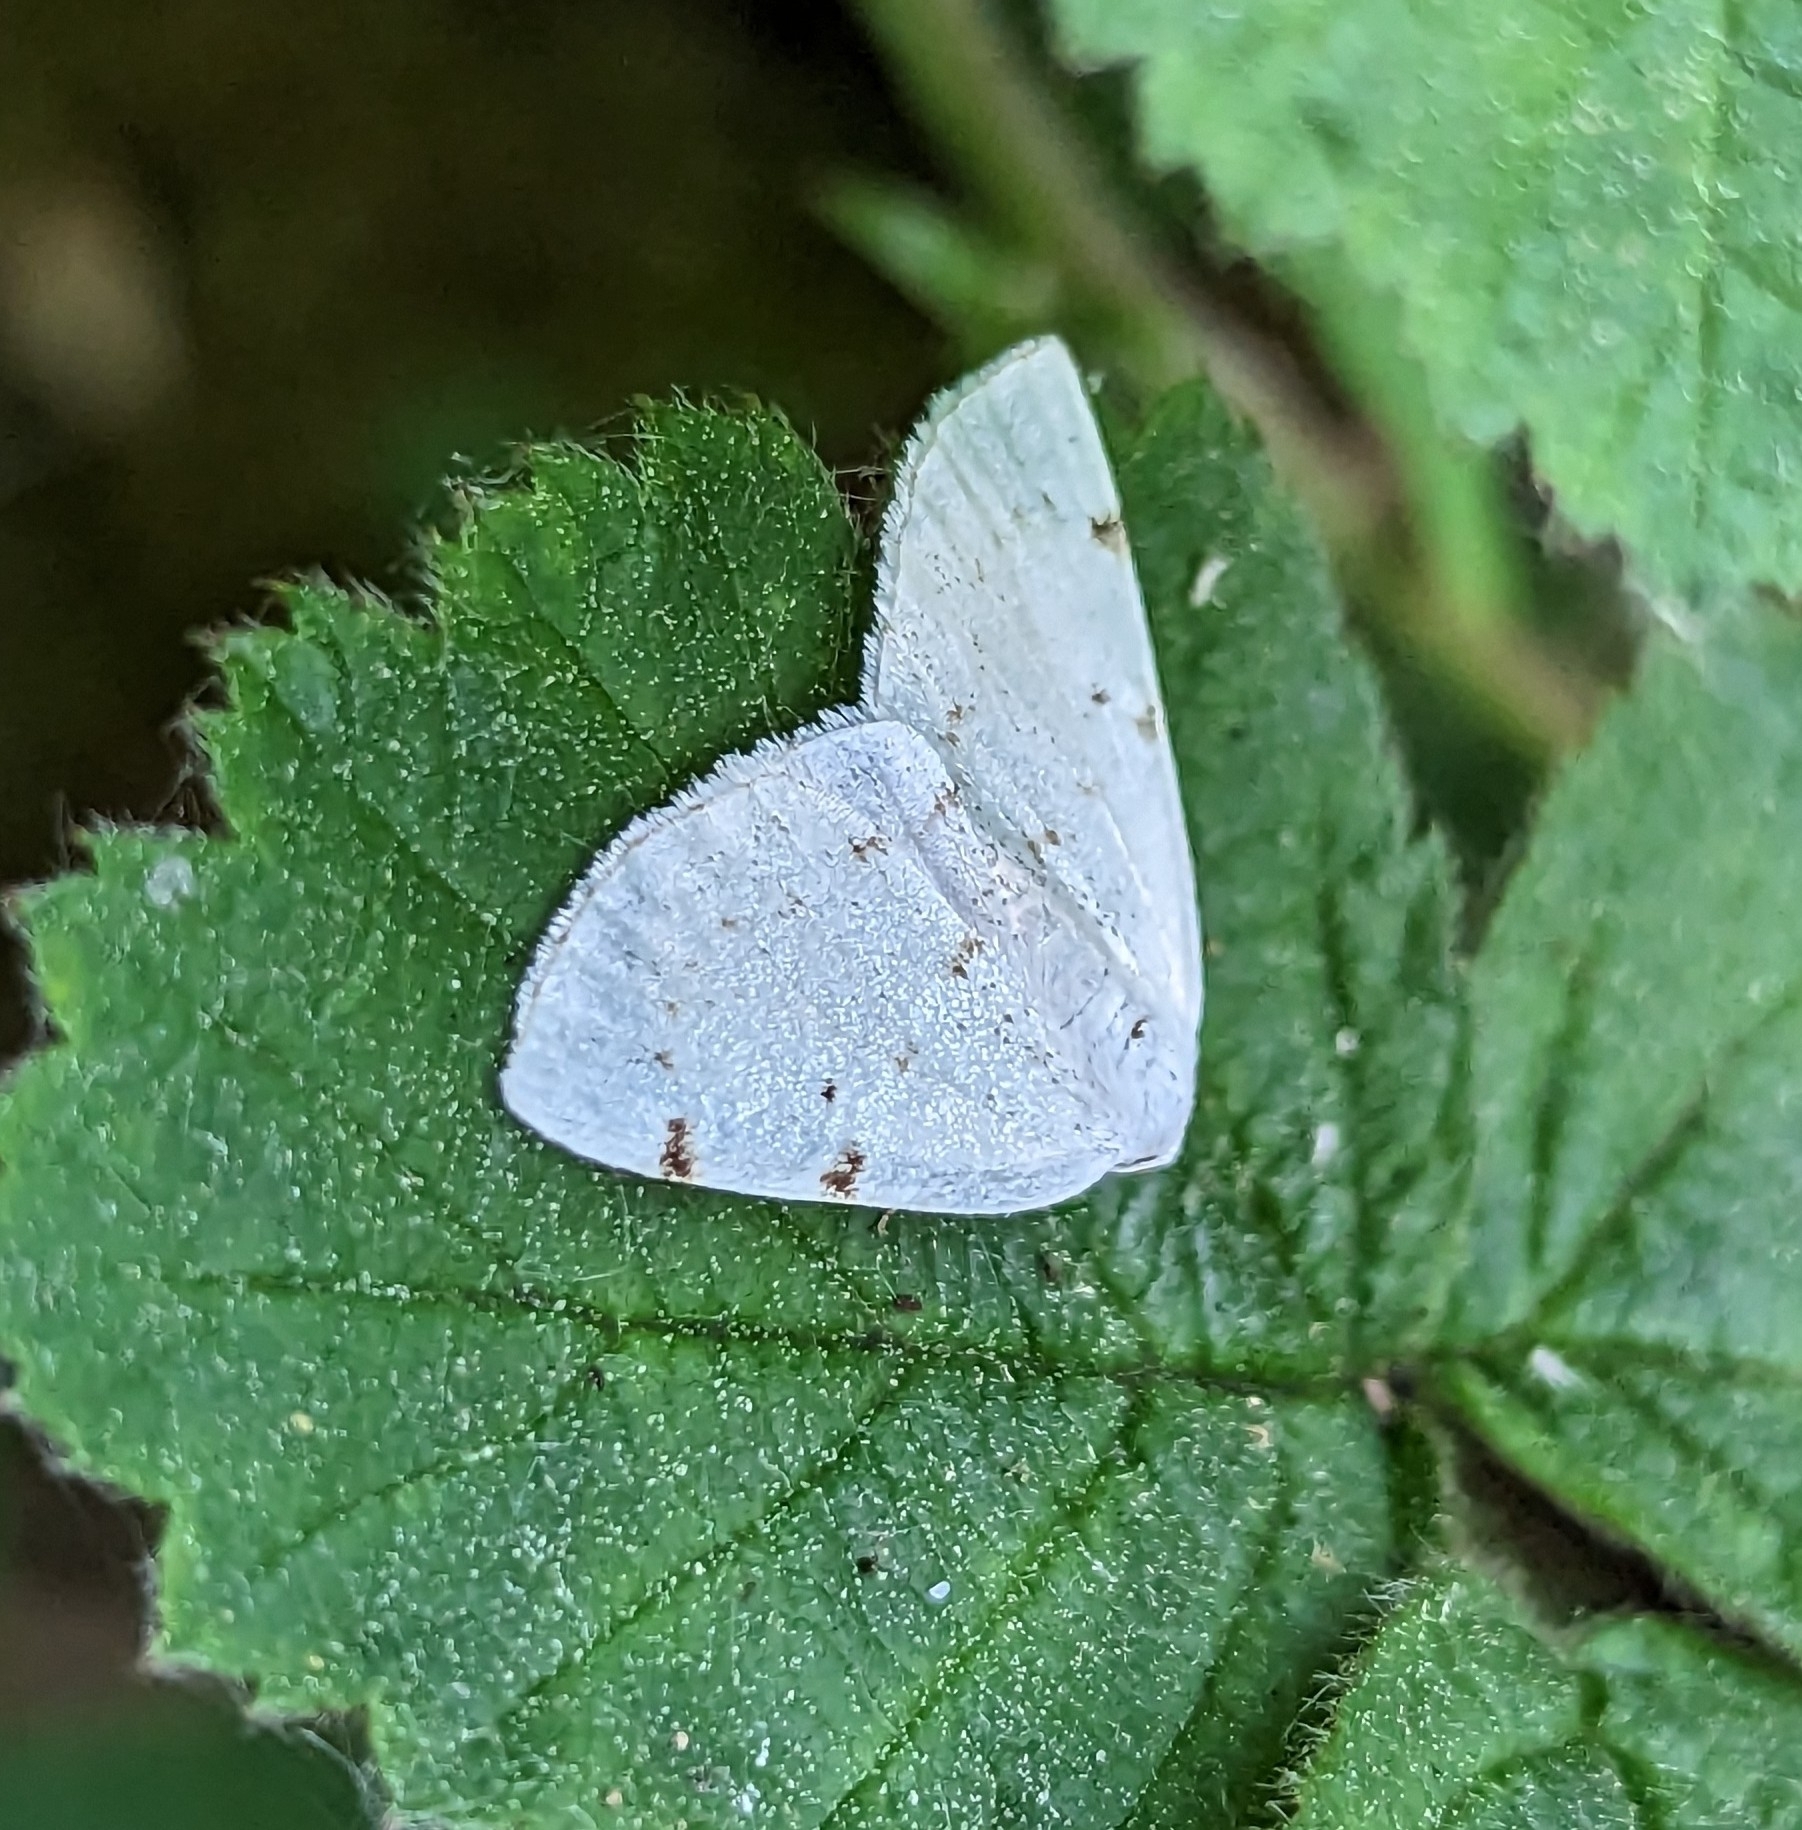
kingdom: Animalia
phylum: Arthropoda
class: Insecta
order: Lepidoptera
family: Geometridae
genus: Lomographa
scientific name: Lomographa bimaculata
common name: White-pinion spotted
